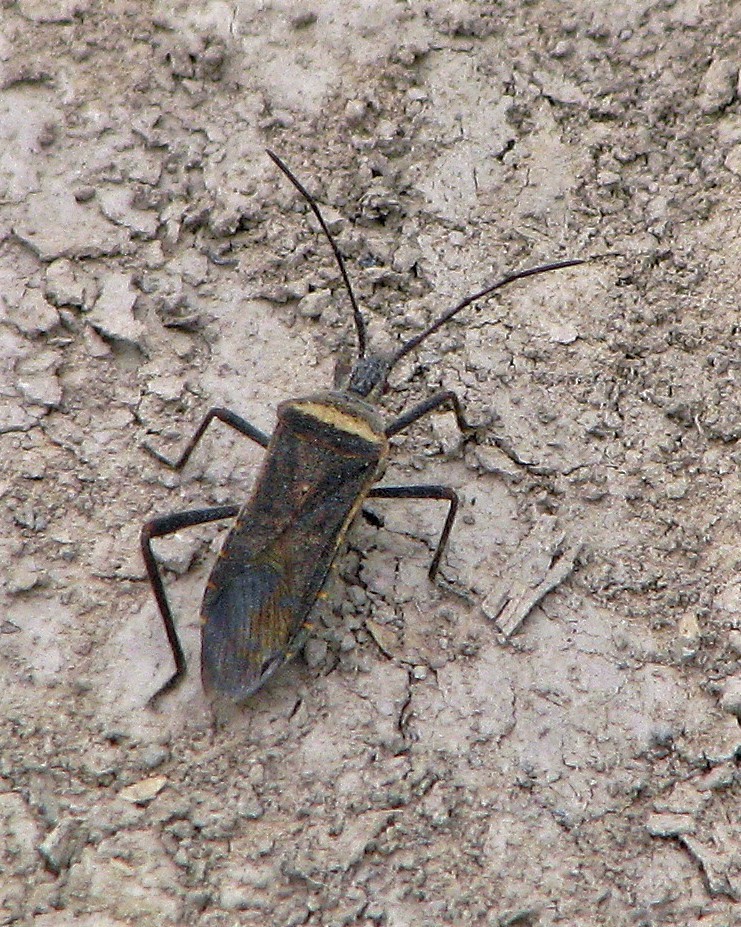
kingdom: Animalia
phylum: Arthropoda
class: Insecta
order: Hemiptera
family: Coreidae
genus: Phthiacnemia
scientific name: Phthiacnemia picta
